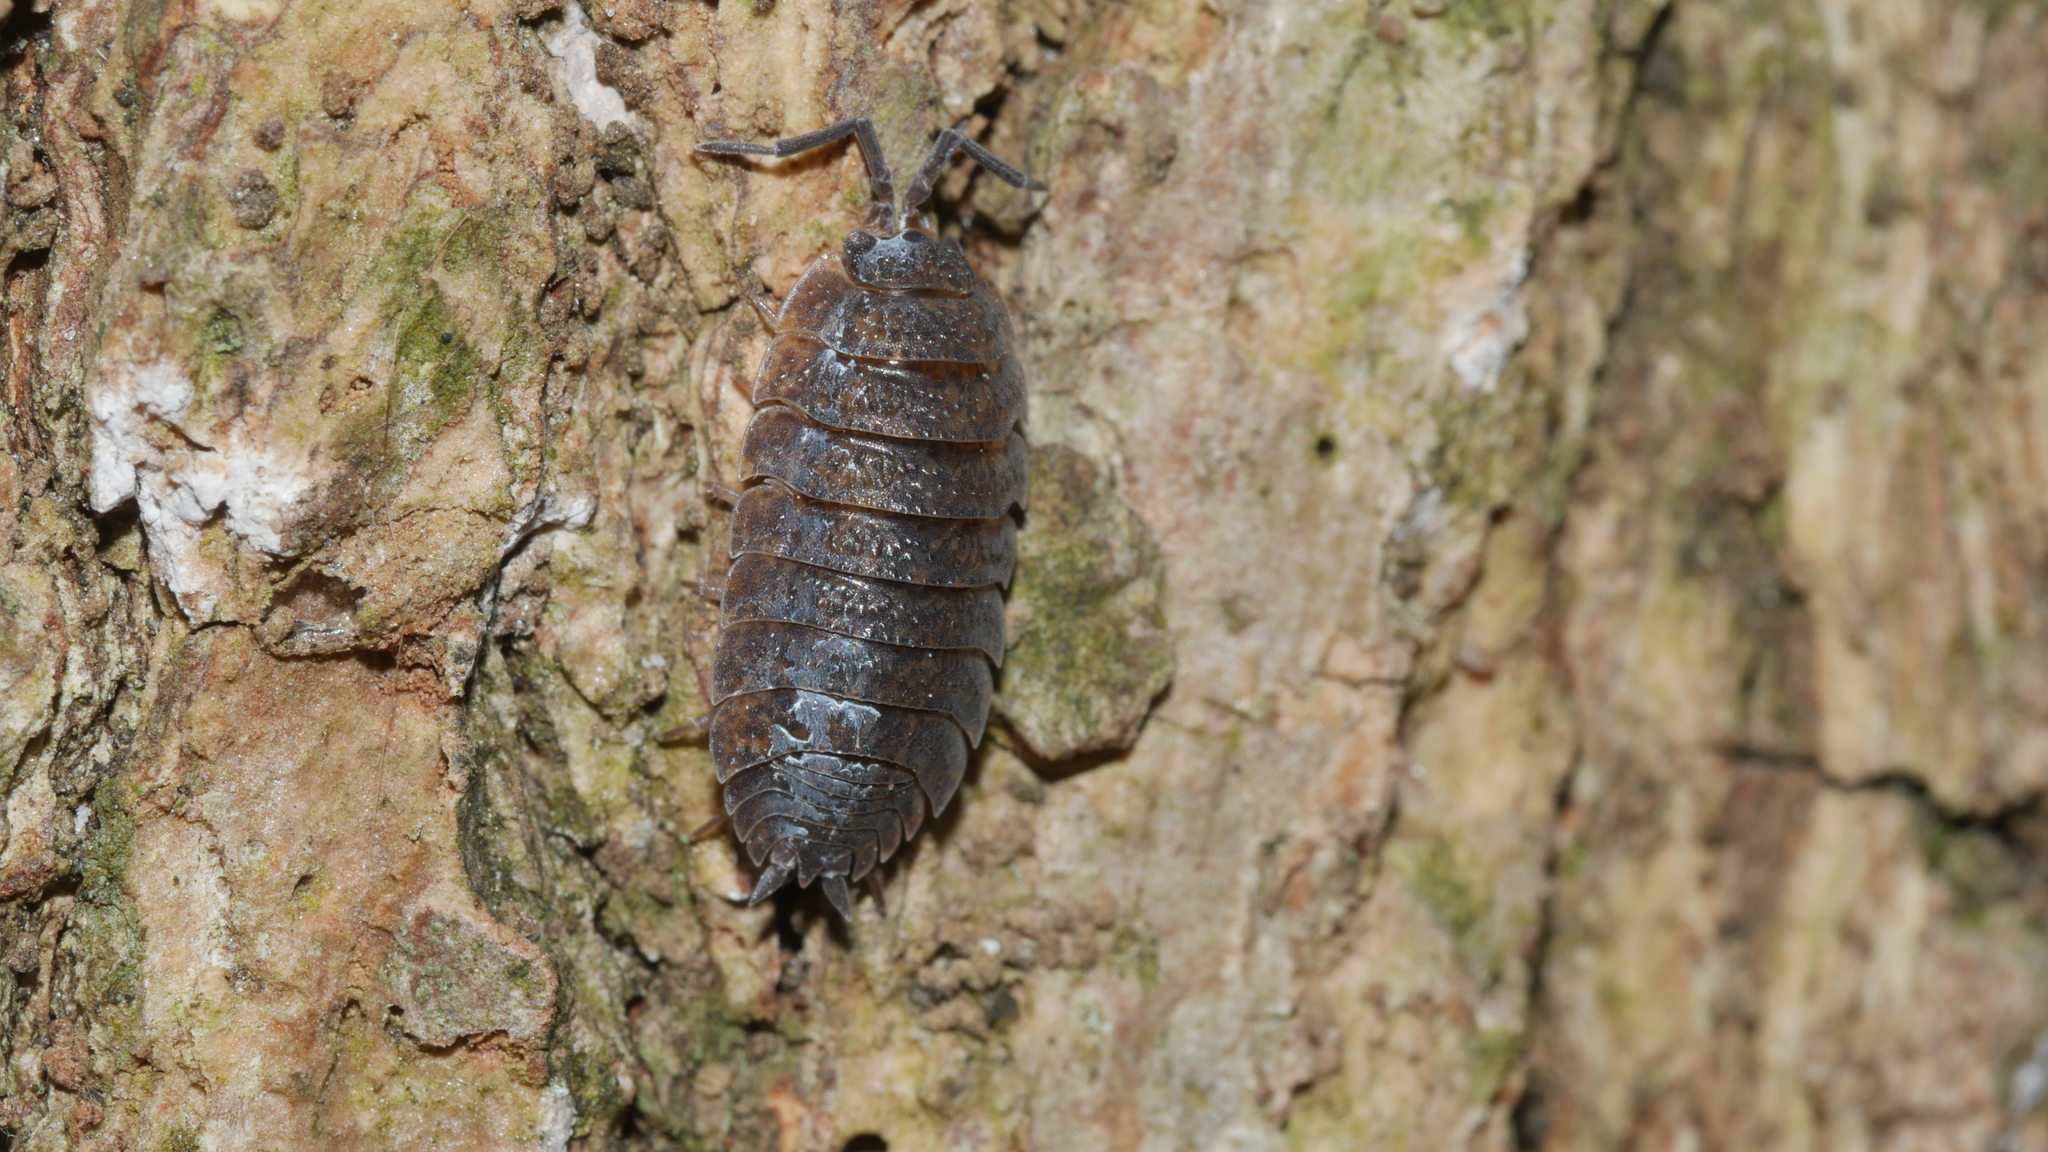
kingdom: Animalia
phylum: Arthropoda
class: Malacostraca
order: Isopoda
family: Porcellionidae
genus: Porcellio
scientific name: Porcellio scaber
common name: Common rough woodlouse
